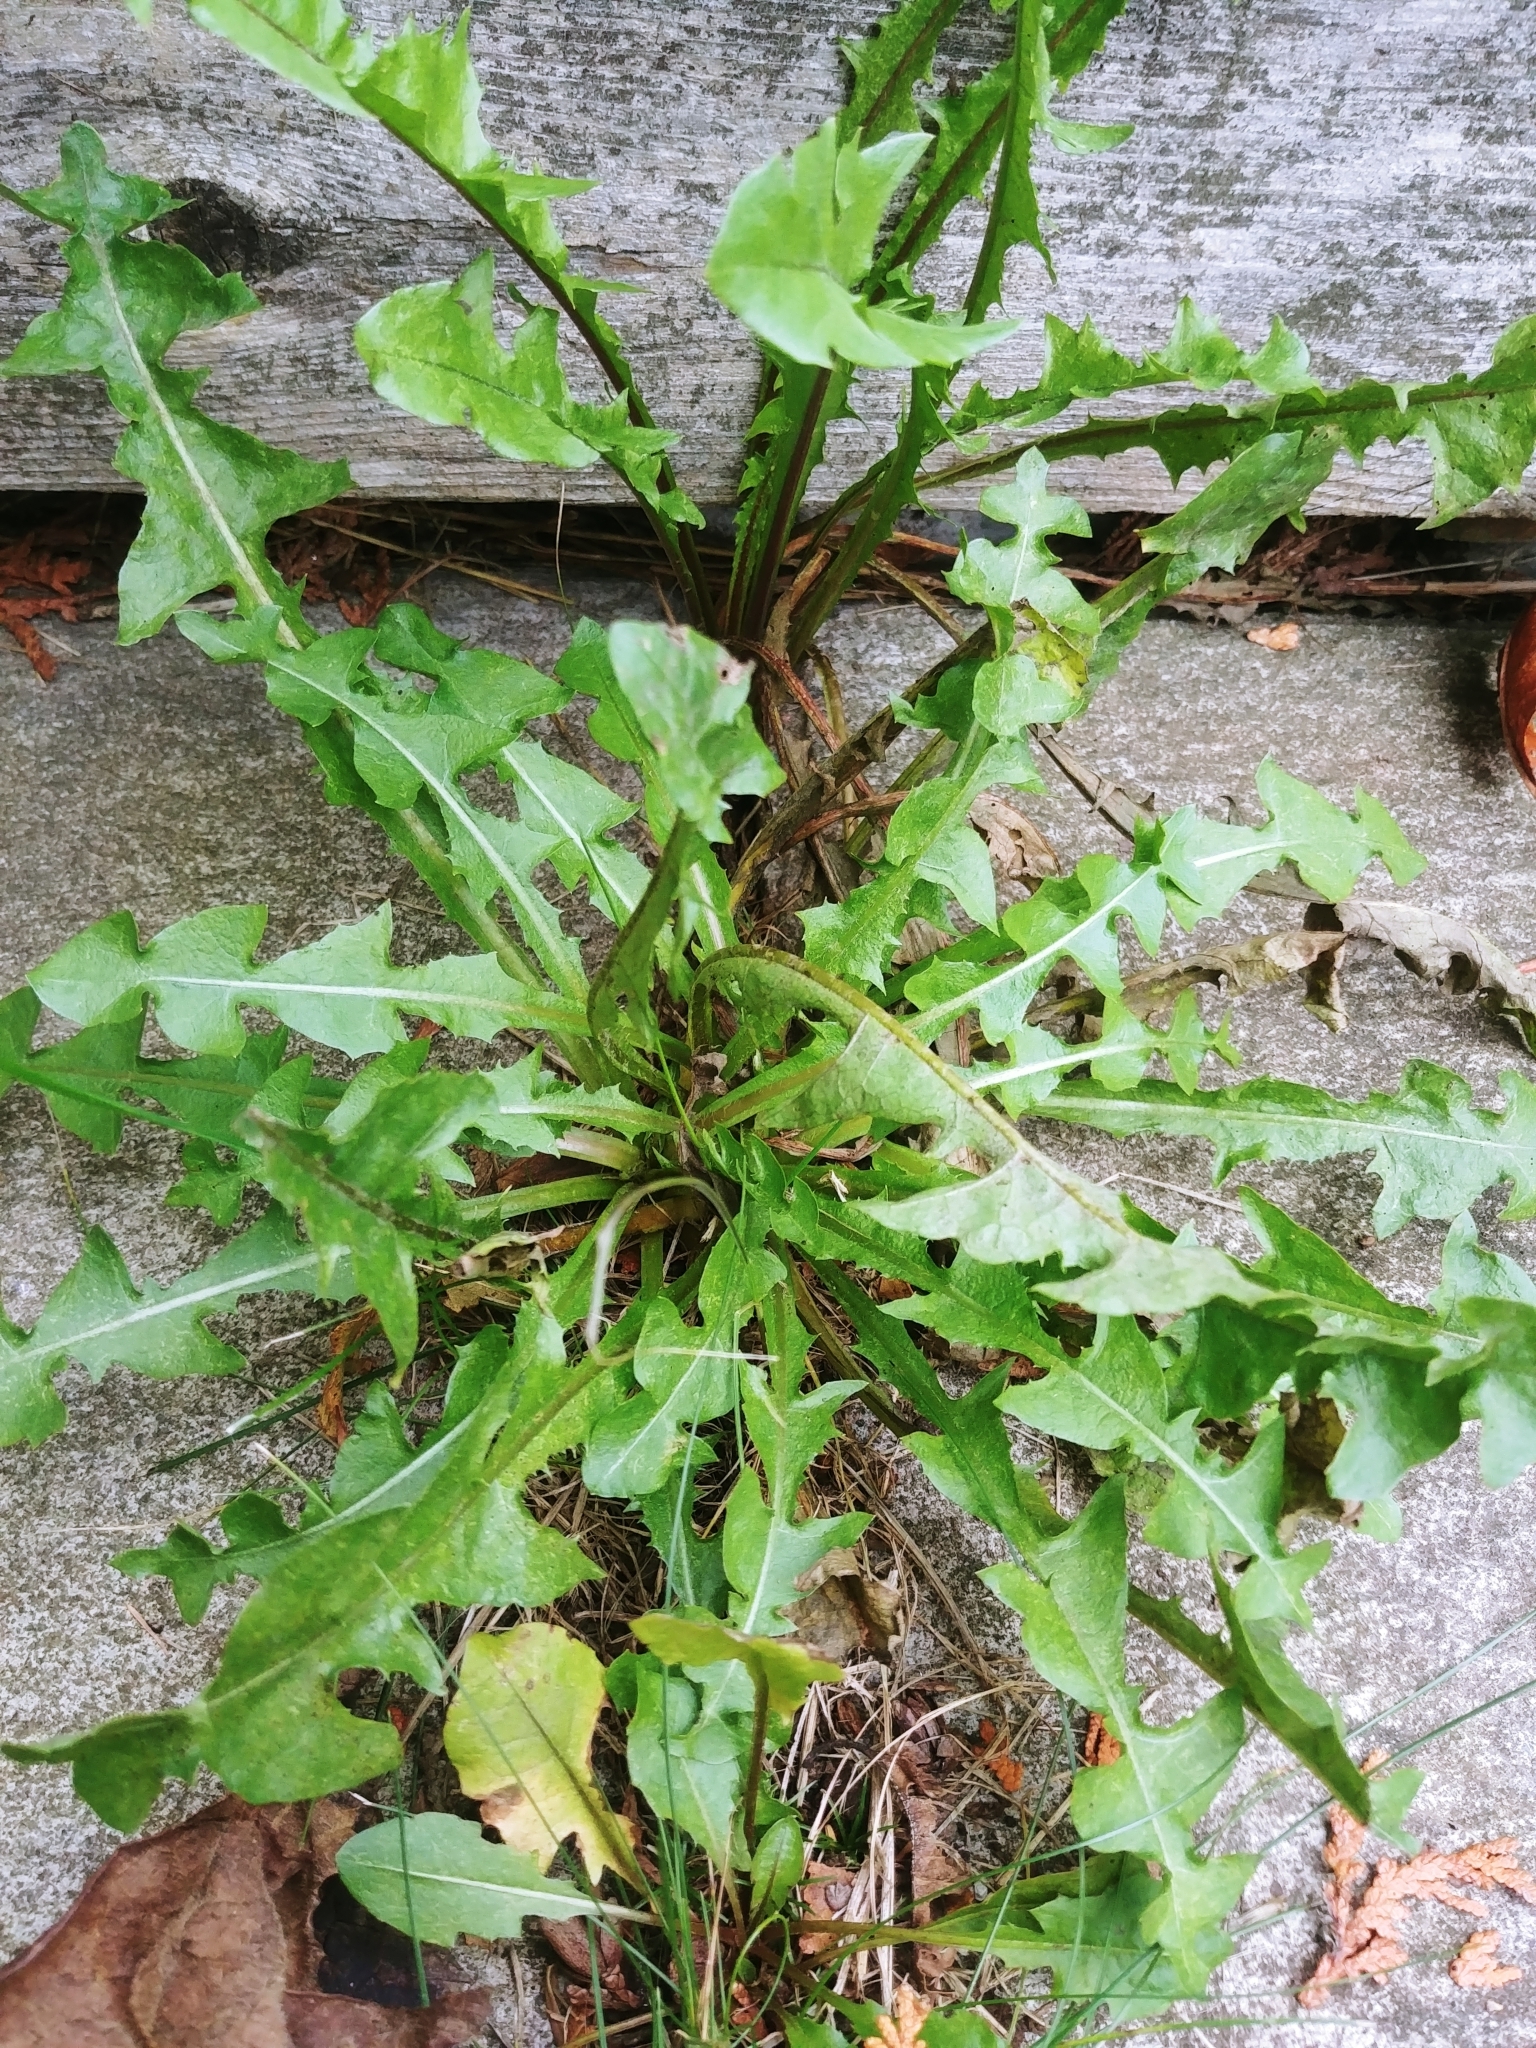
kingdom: Plantae
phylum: Tracheophyta
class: Magnoliopsida
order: Asterales
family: Asteraceae
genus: Taraxacum
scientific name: Taraxacum officinale
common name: Common dandelion
